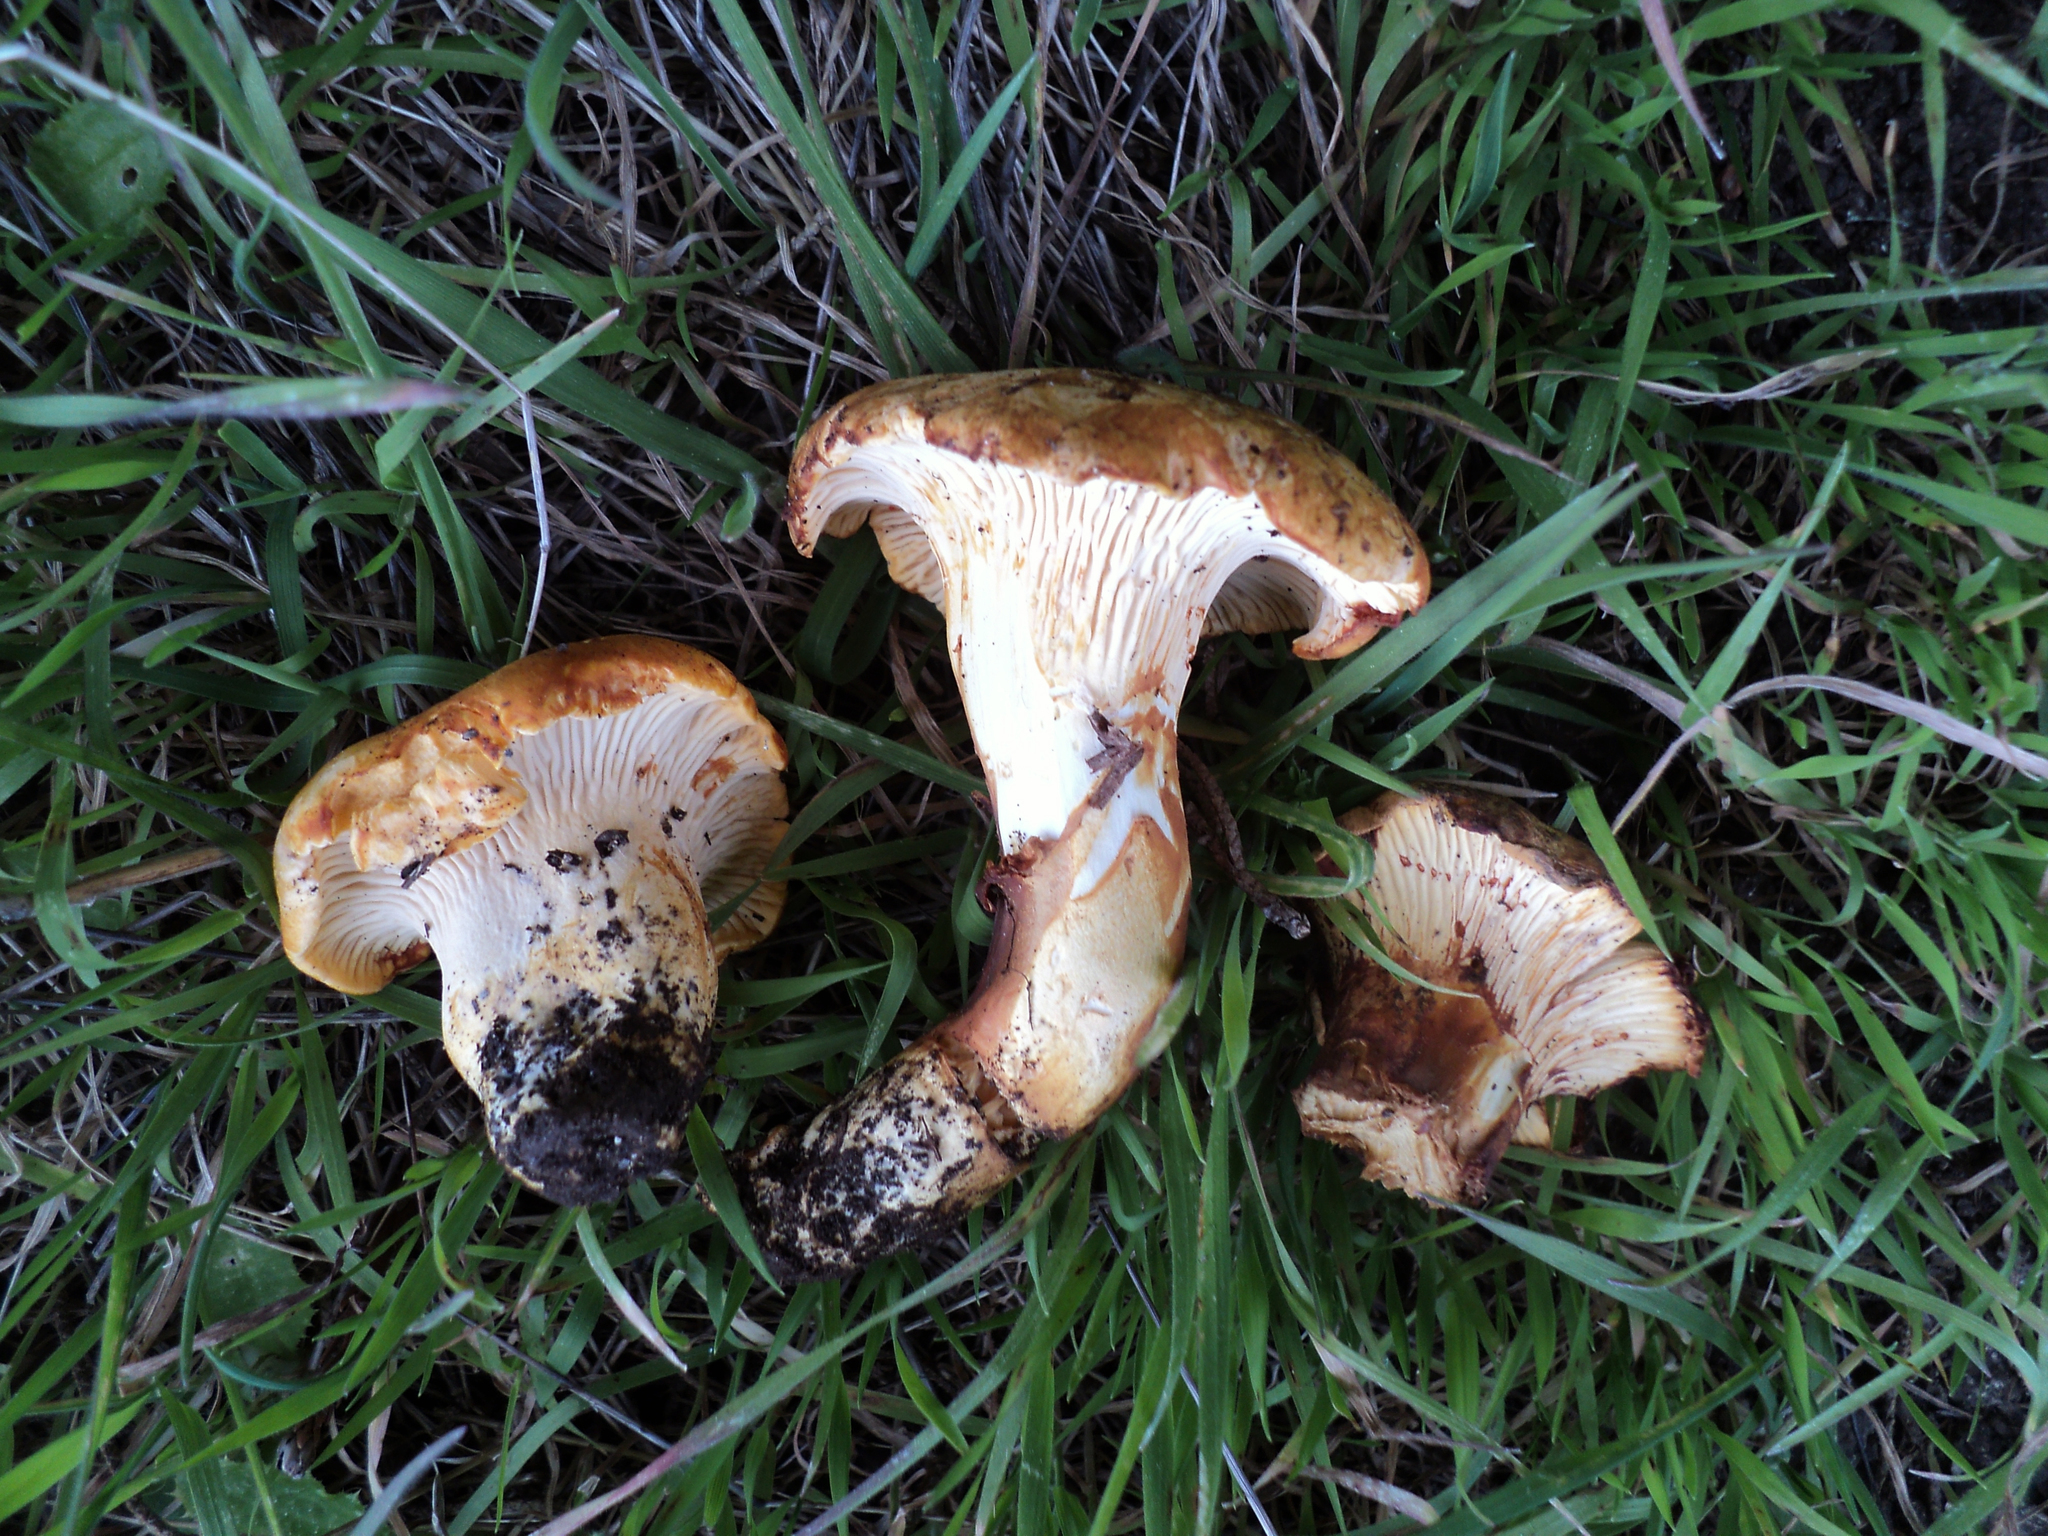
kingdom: Fungi
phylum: Basidiomycota
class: Agaricomycetes
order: Cantharellales
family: Hydnaceae
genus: Cantharellus
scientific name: Cantharellus californicus
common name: California golden chanterelle
